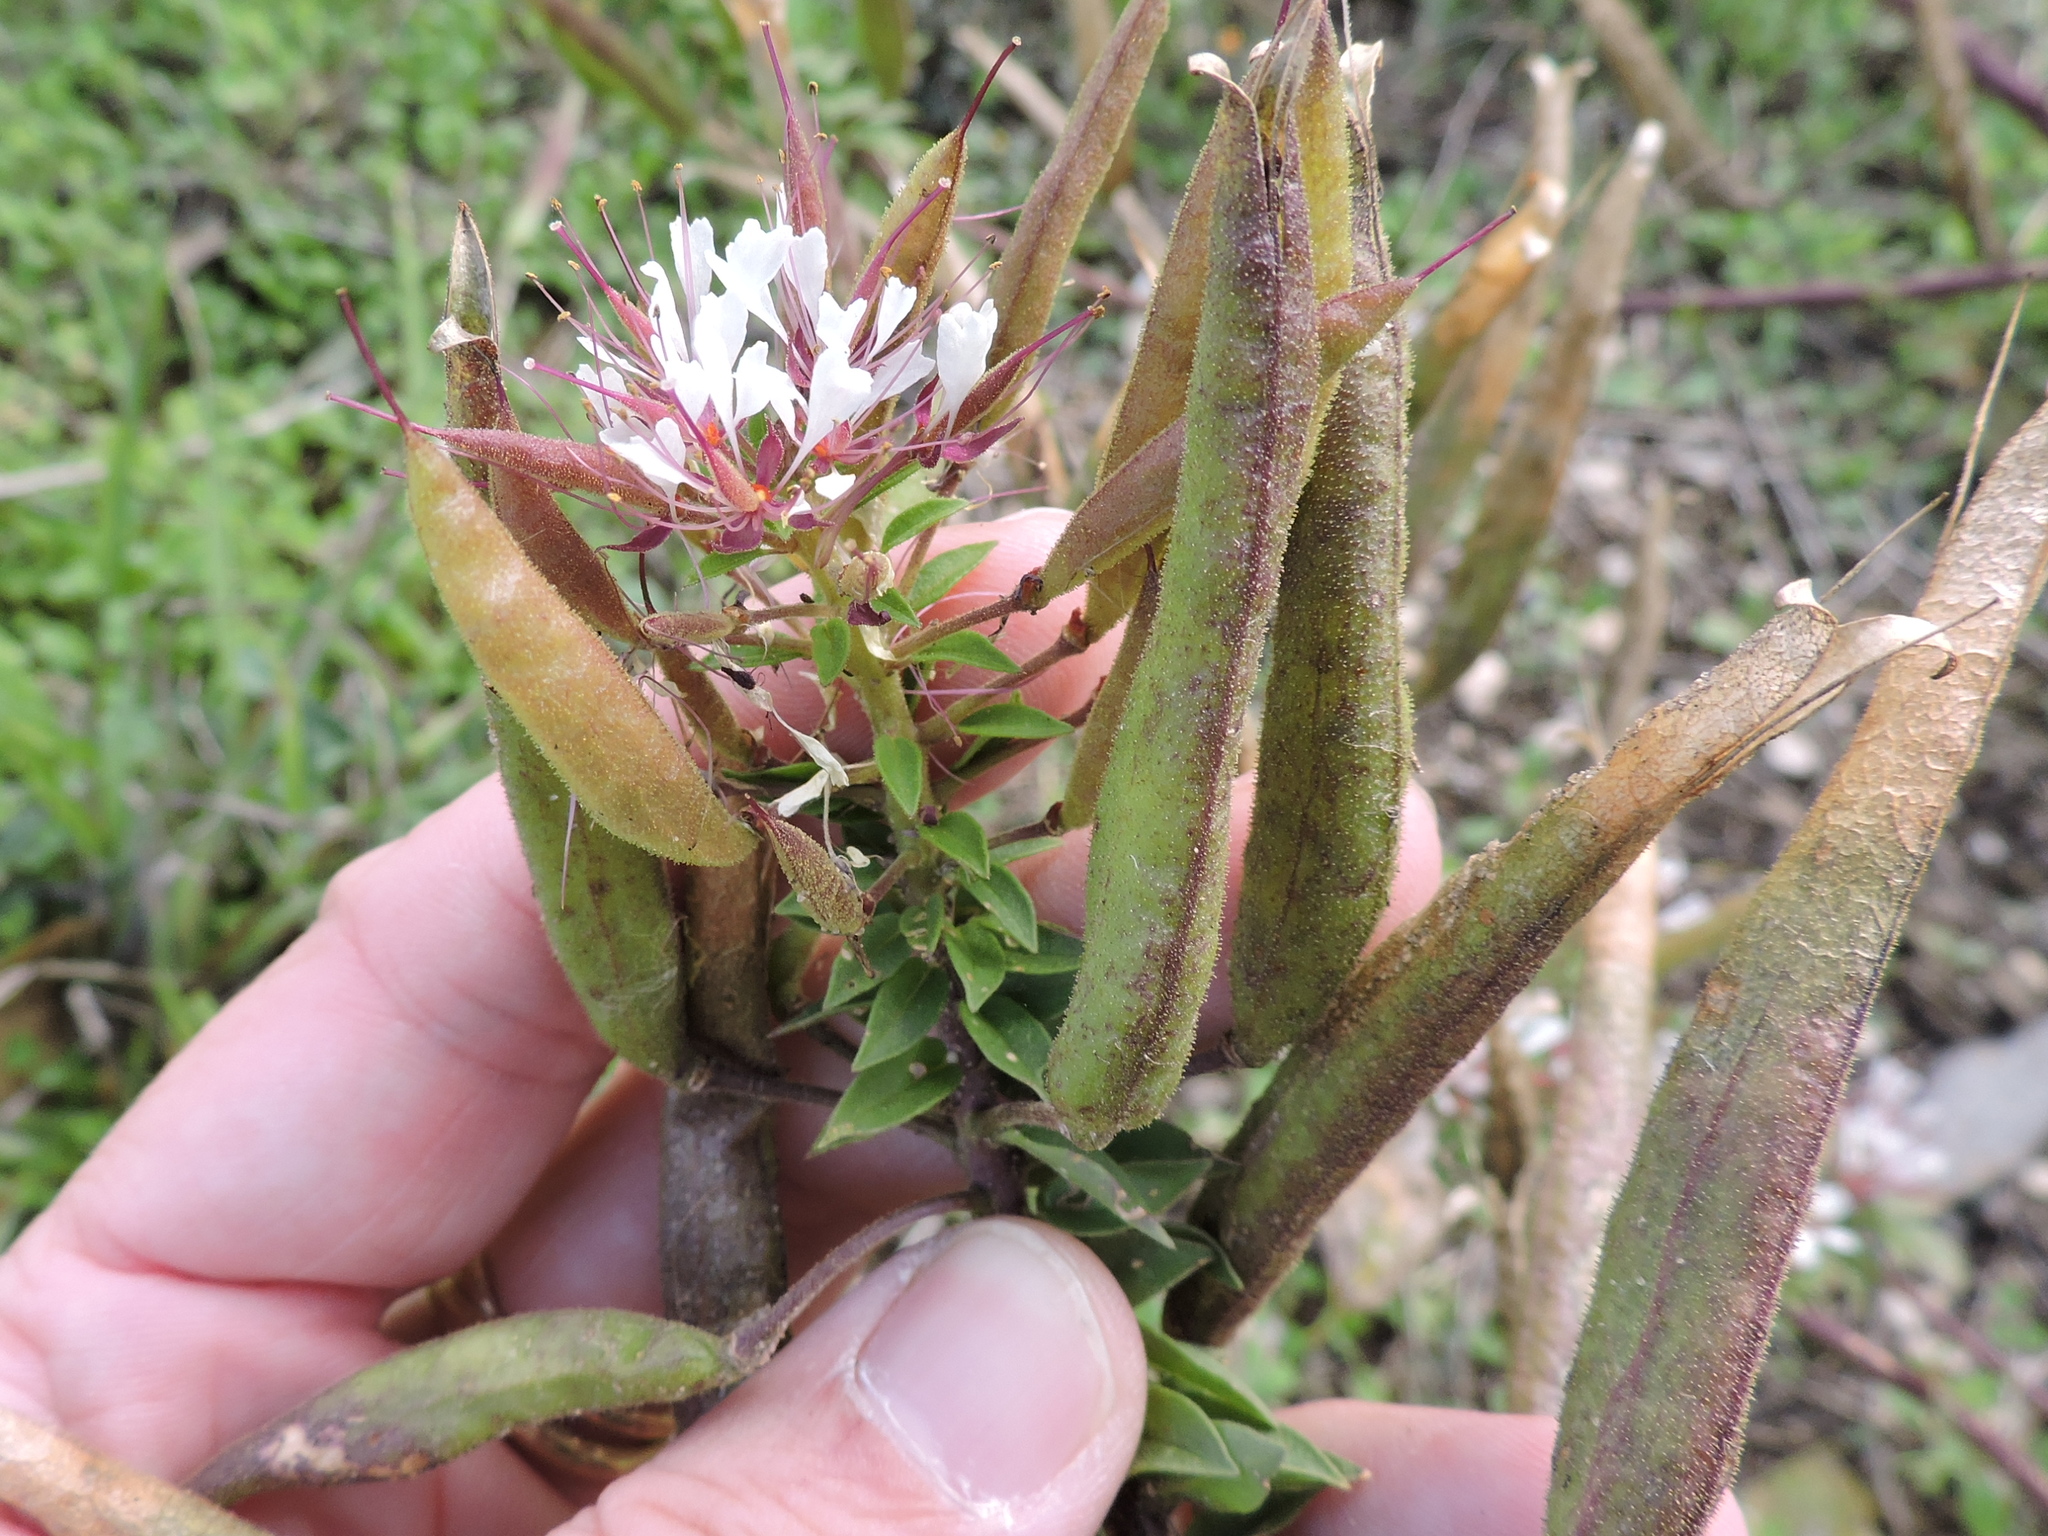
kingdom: Plantae
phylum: Tracheophyta
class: Magnoliopsida
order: Brassicales
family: Cleomaceae
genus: Polanisia
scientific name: Polanisia dodecandra
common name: Clammyweed
